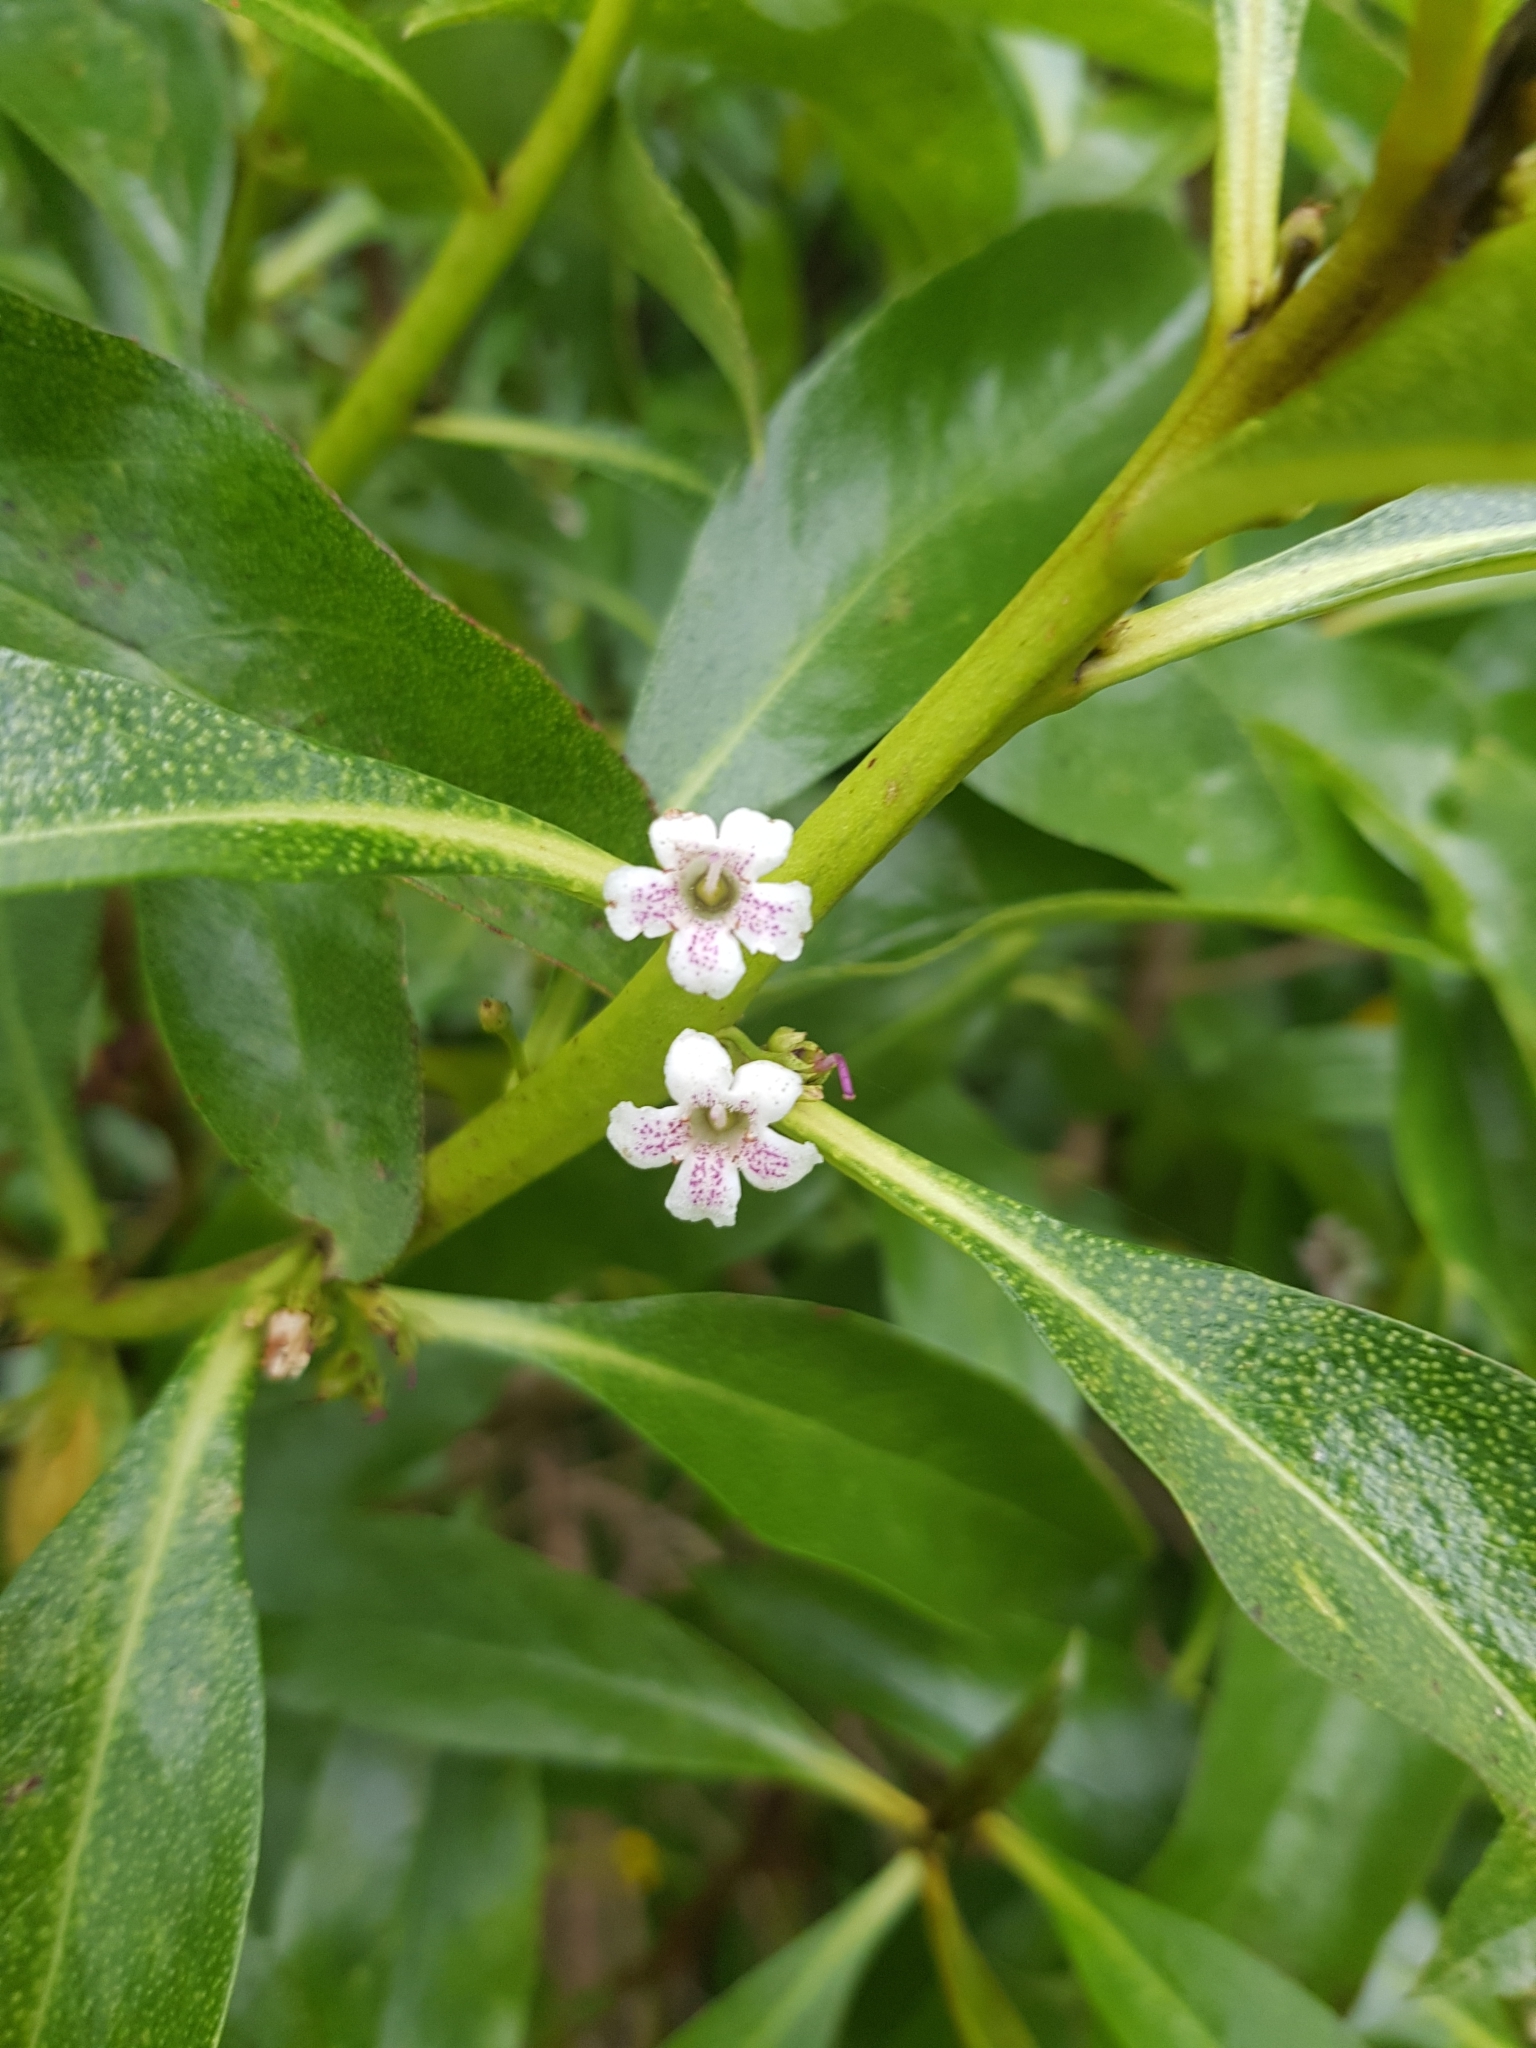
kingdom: Plantae
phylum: Tracheophyta
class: Magnoliopsida
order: Lamiales
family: Scrophulariaceae
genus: Myoporum
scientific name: Myoporum laetum
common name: Ngaio tree
